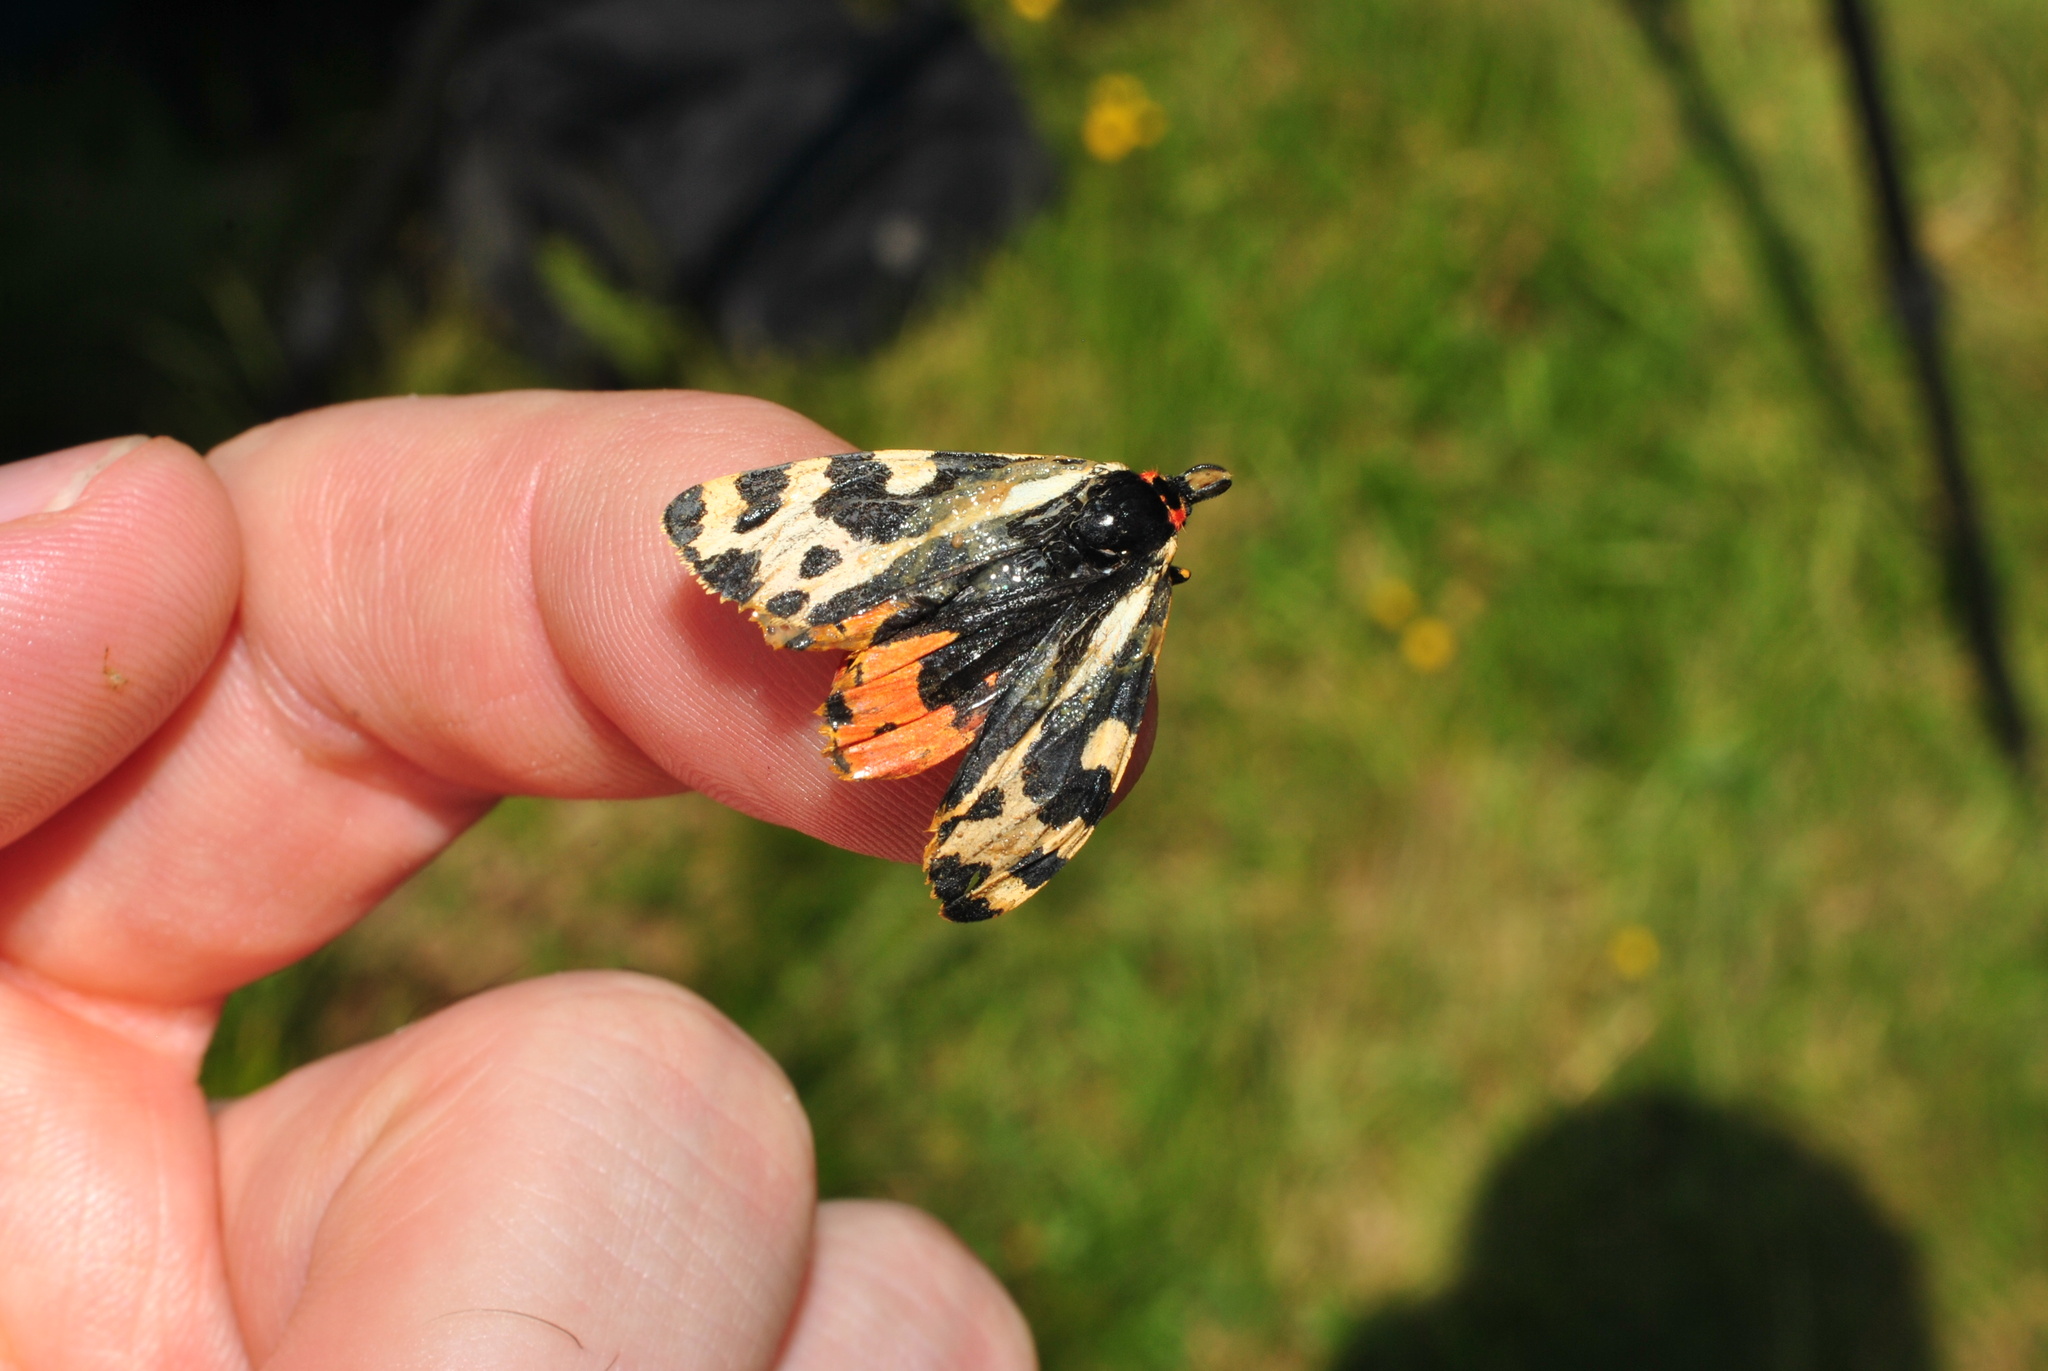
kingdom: Animalia
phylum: Arthropoda
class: Insecta
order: Lepidoptera
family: Erebidae
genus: Parasemia
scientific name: Parasemia plantaginis
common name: Wood tiger
